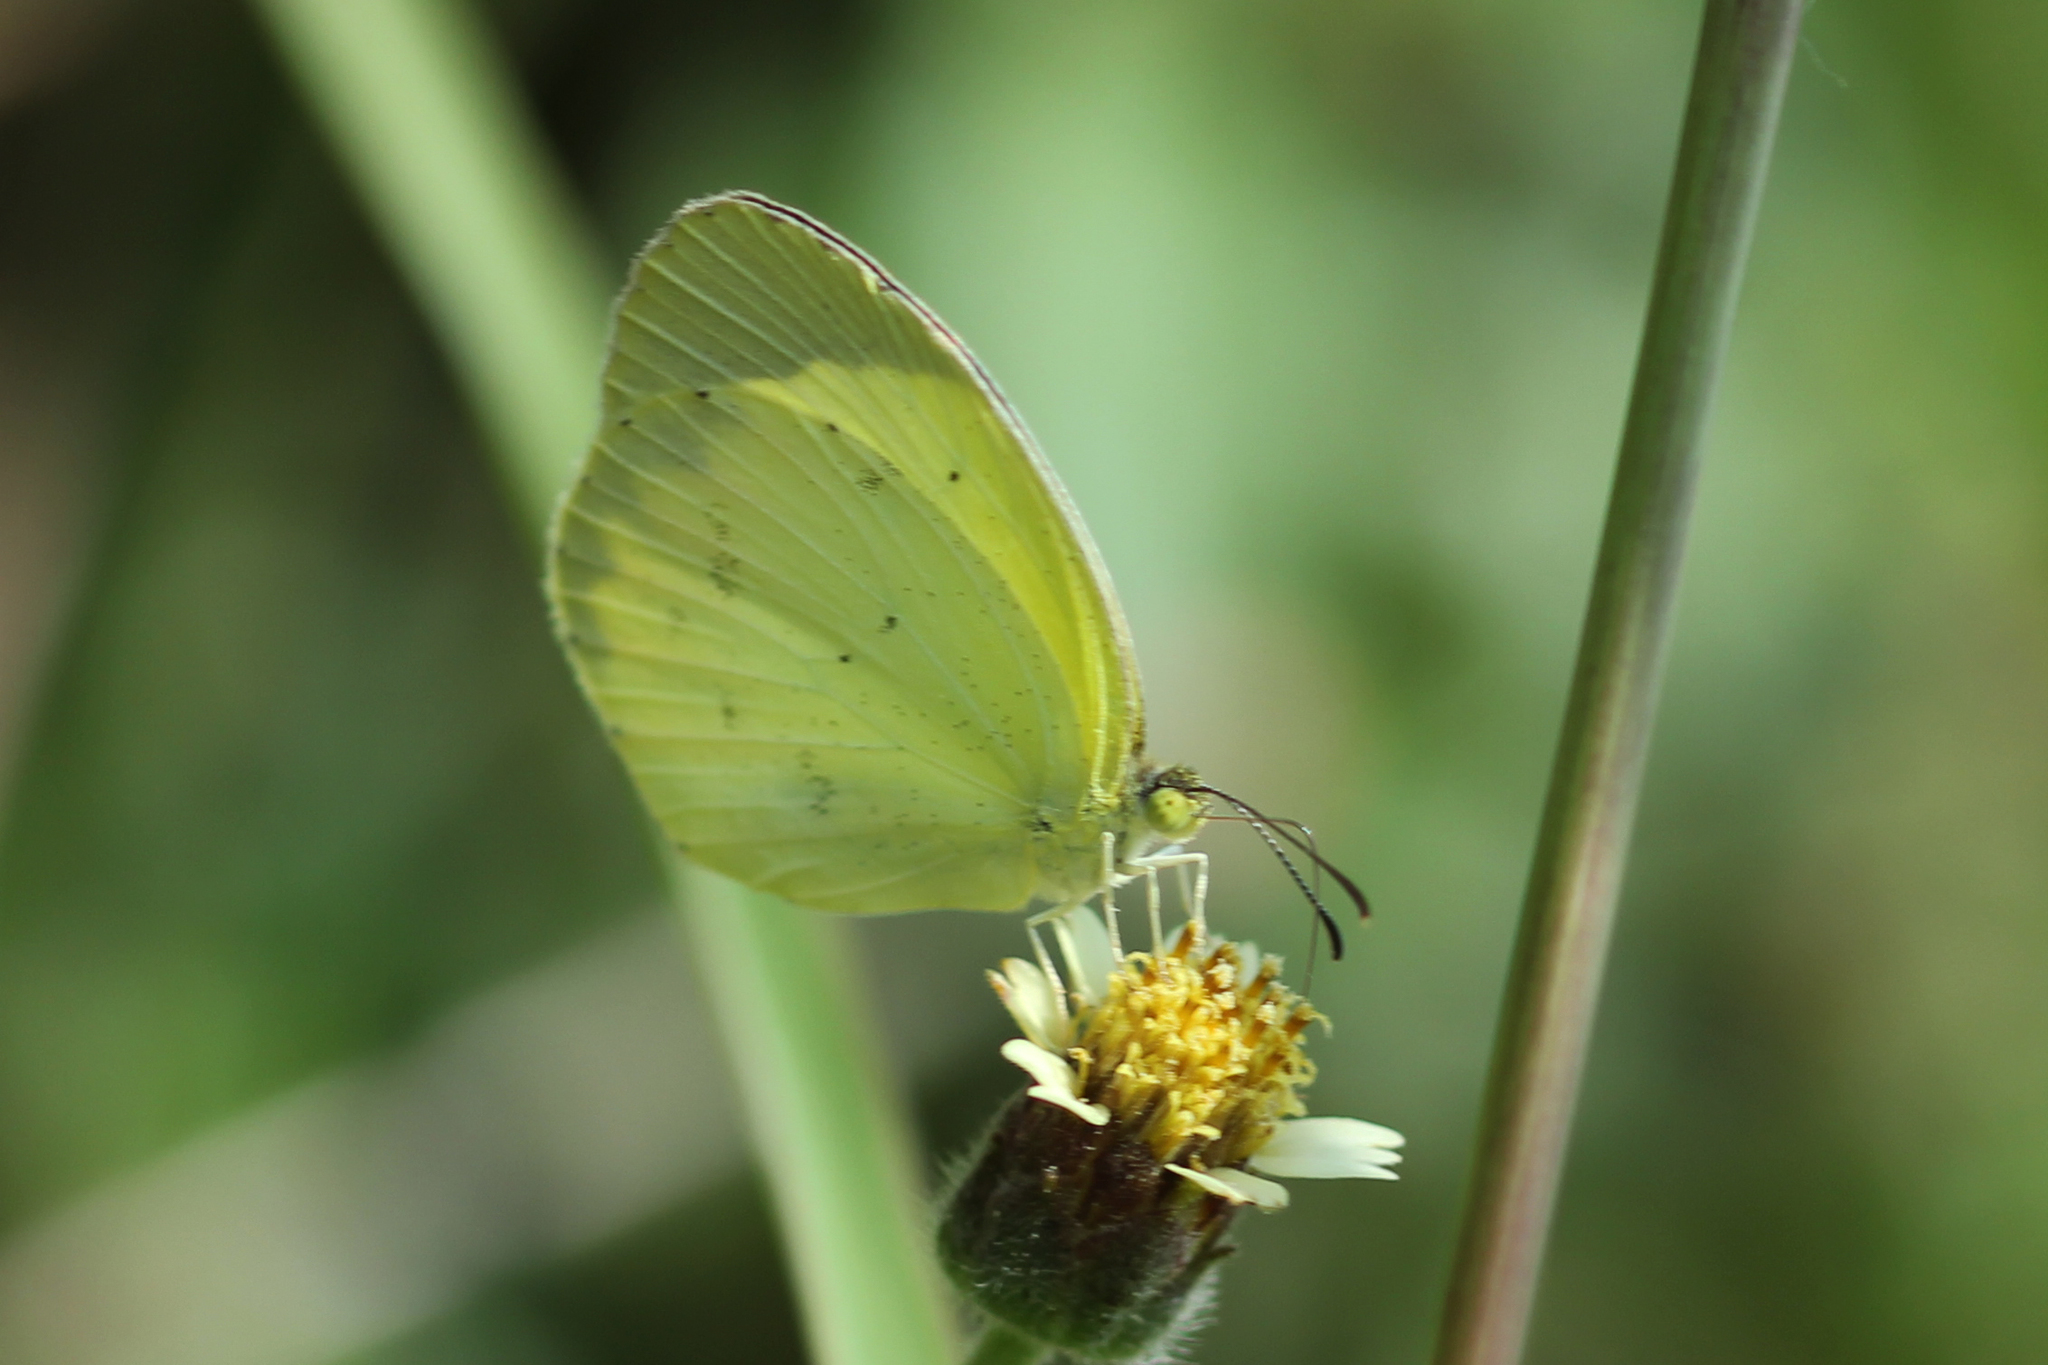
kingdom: Animalia
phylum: Arthropoda
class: Insecta
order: Lepidoptera
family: Pieridae
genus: Pyrisitia
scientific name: Pyrisitia nise
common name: Mimosa yellow
